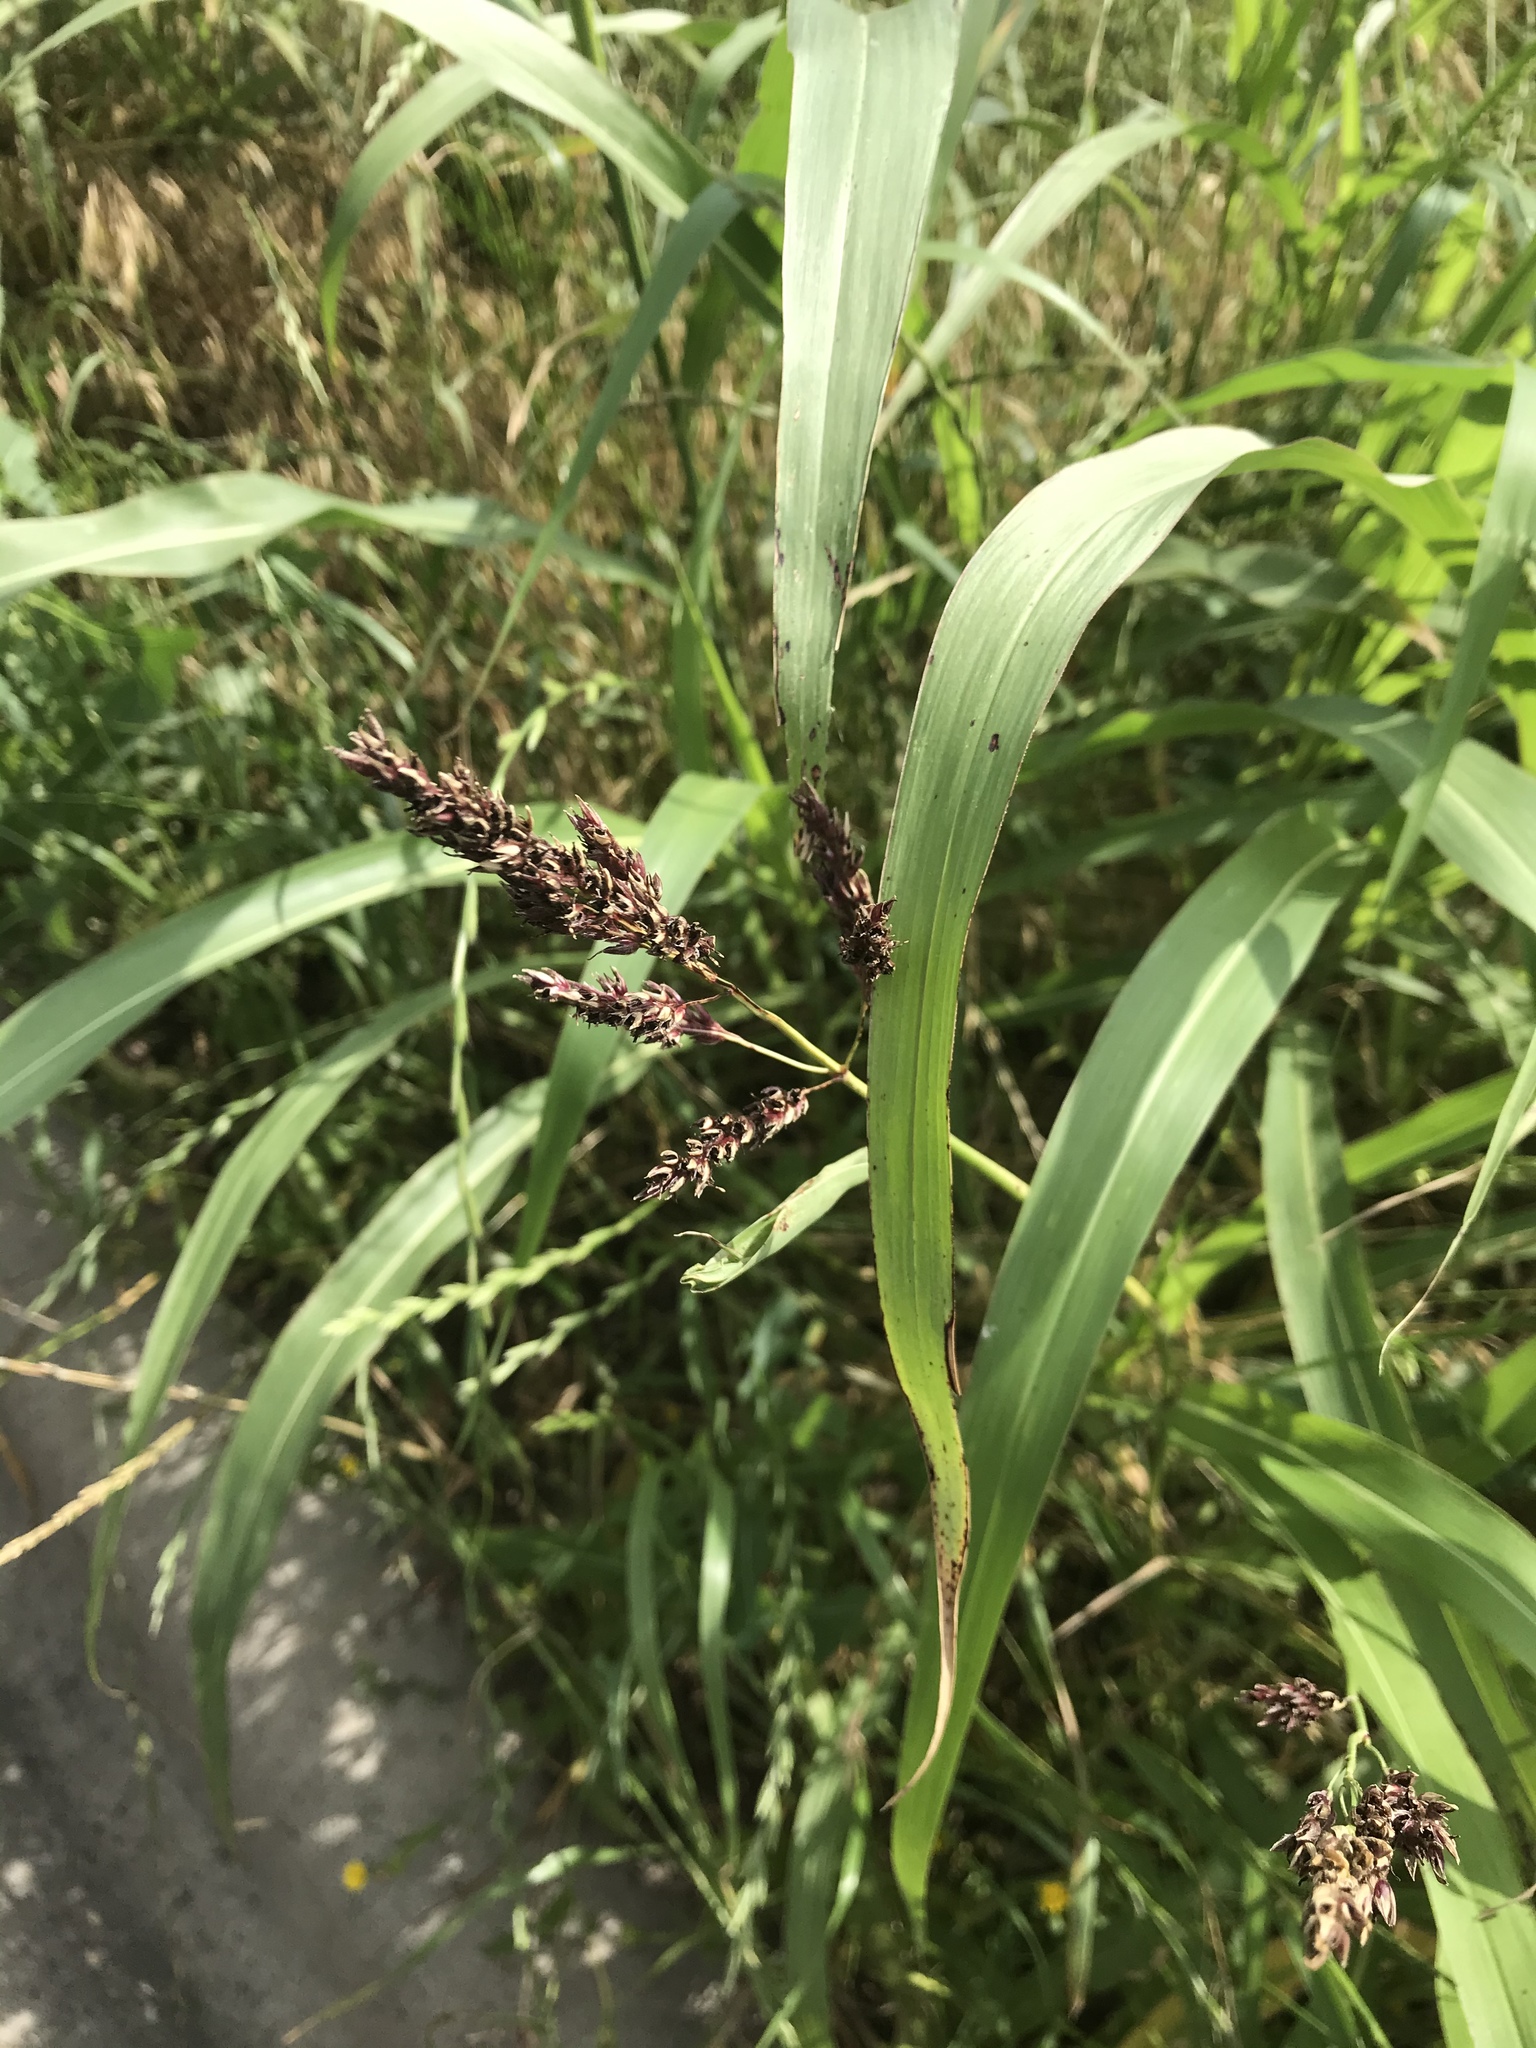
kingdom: Plantae
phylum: Tracheophyta
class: Liliopsida
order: Poales
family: Poaceae
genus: Sorghum
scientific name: Sorghum halepense
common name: Johnson-grass
